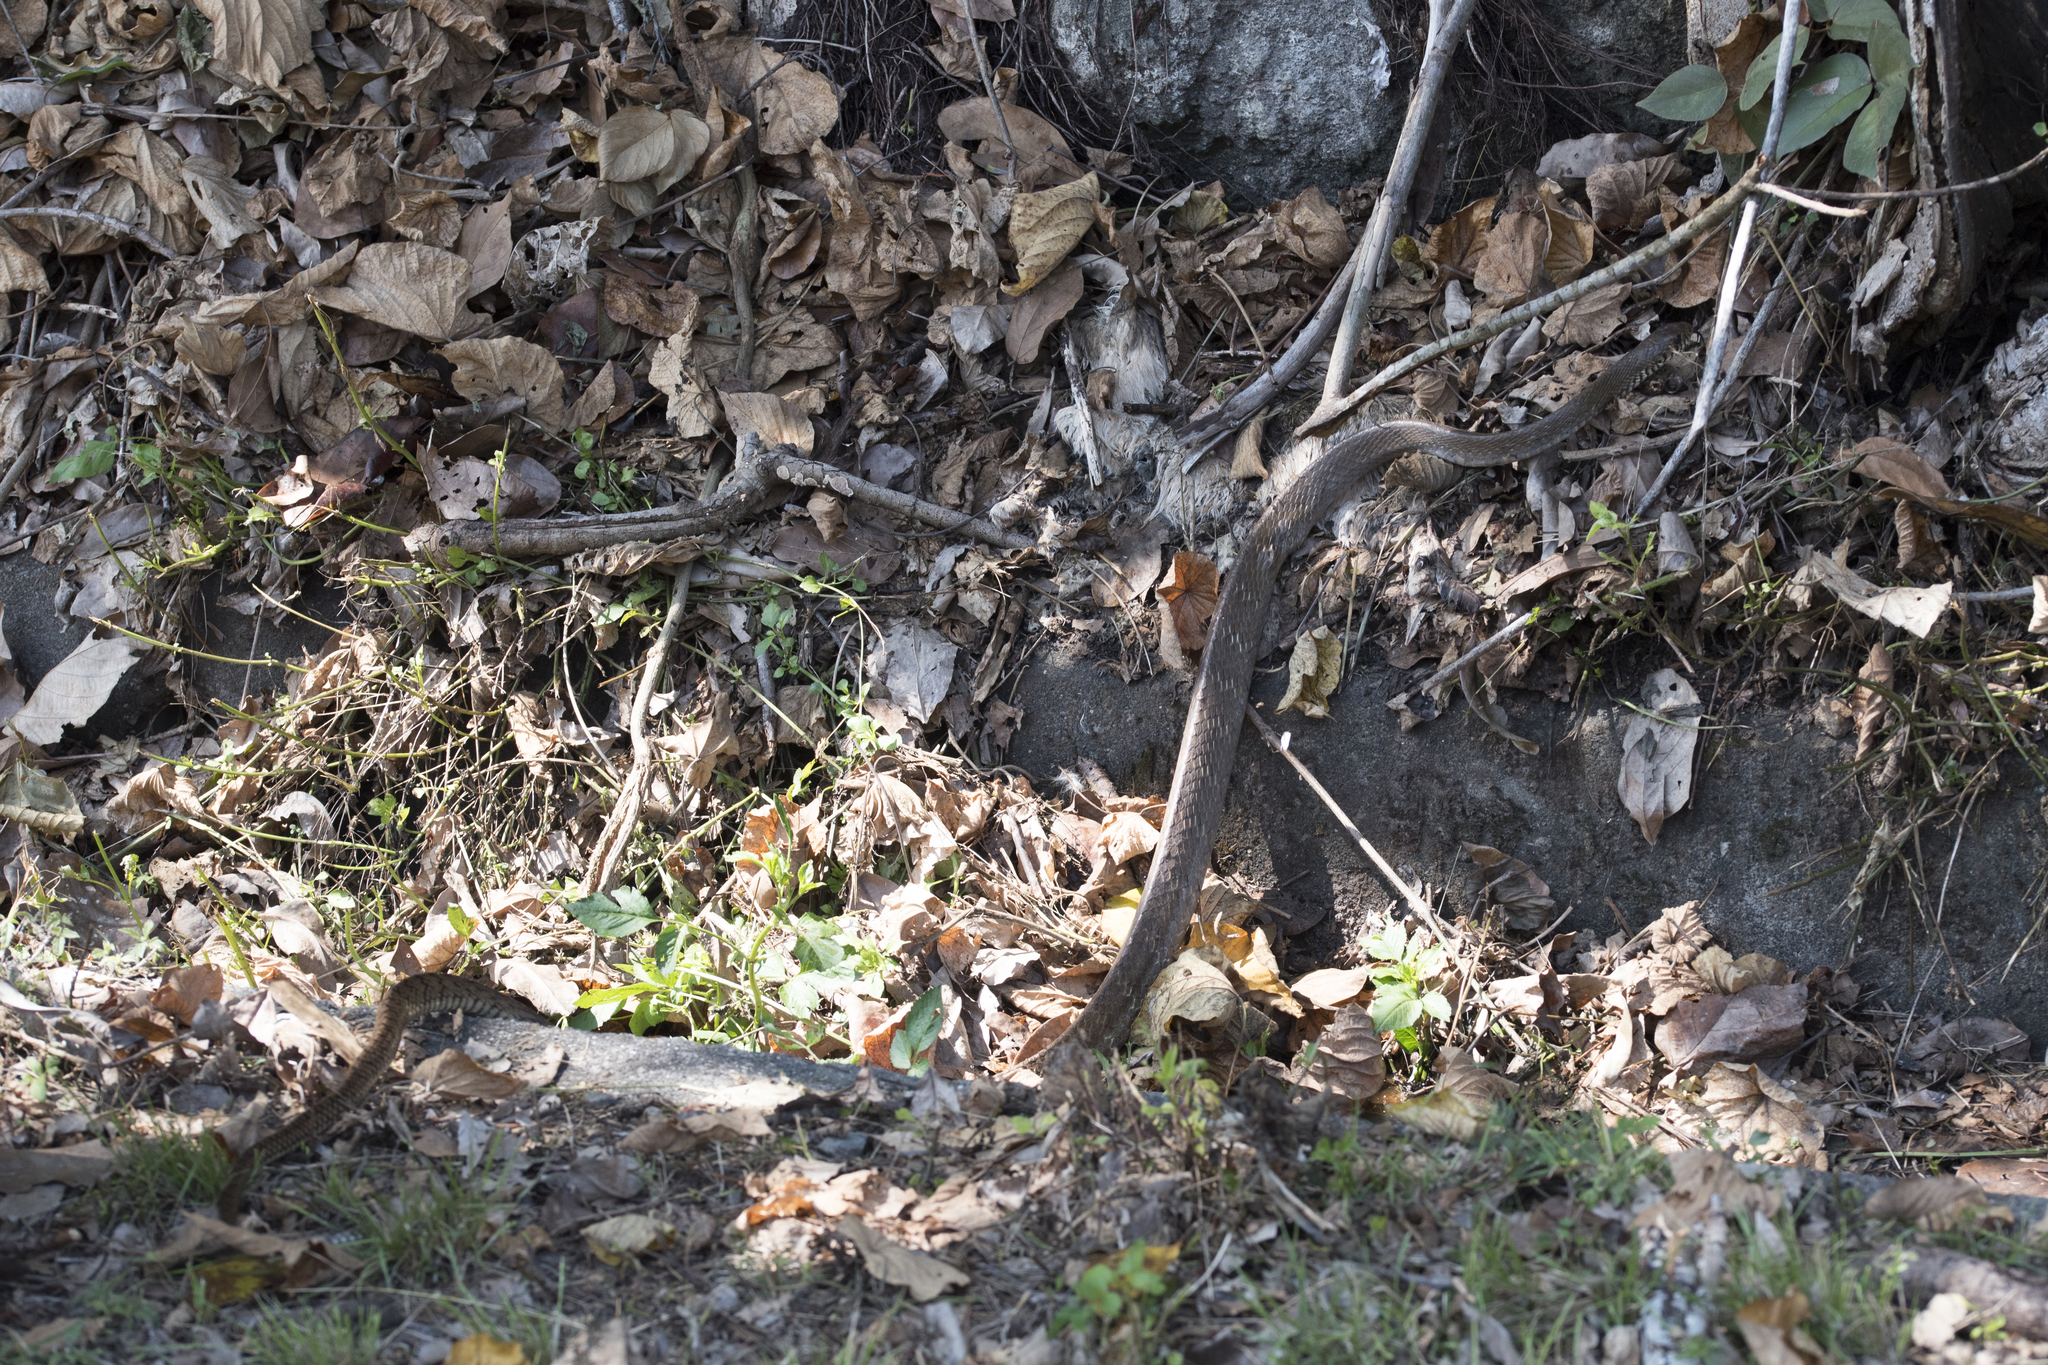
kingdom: Animalia
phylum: Chordata
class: Squamata
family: Colubridae
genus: Ptyas
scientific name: Ptyas mucosa
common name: Oriental ratsnake
